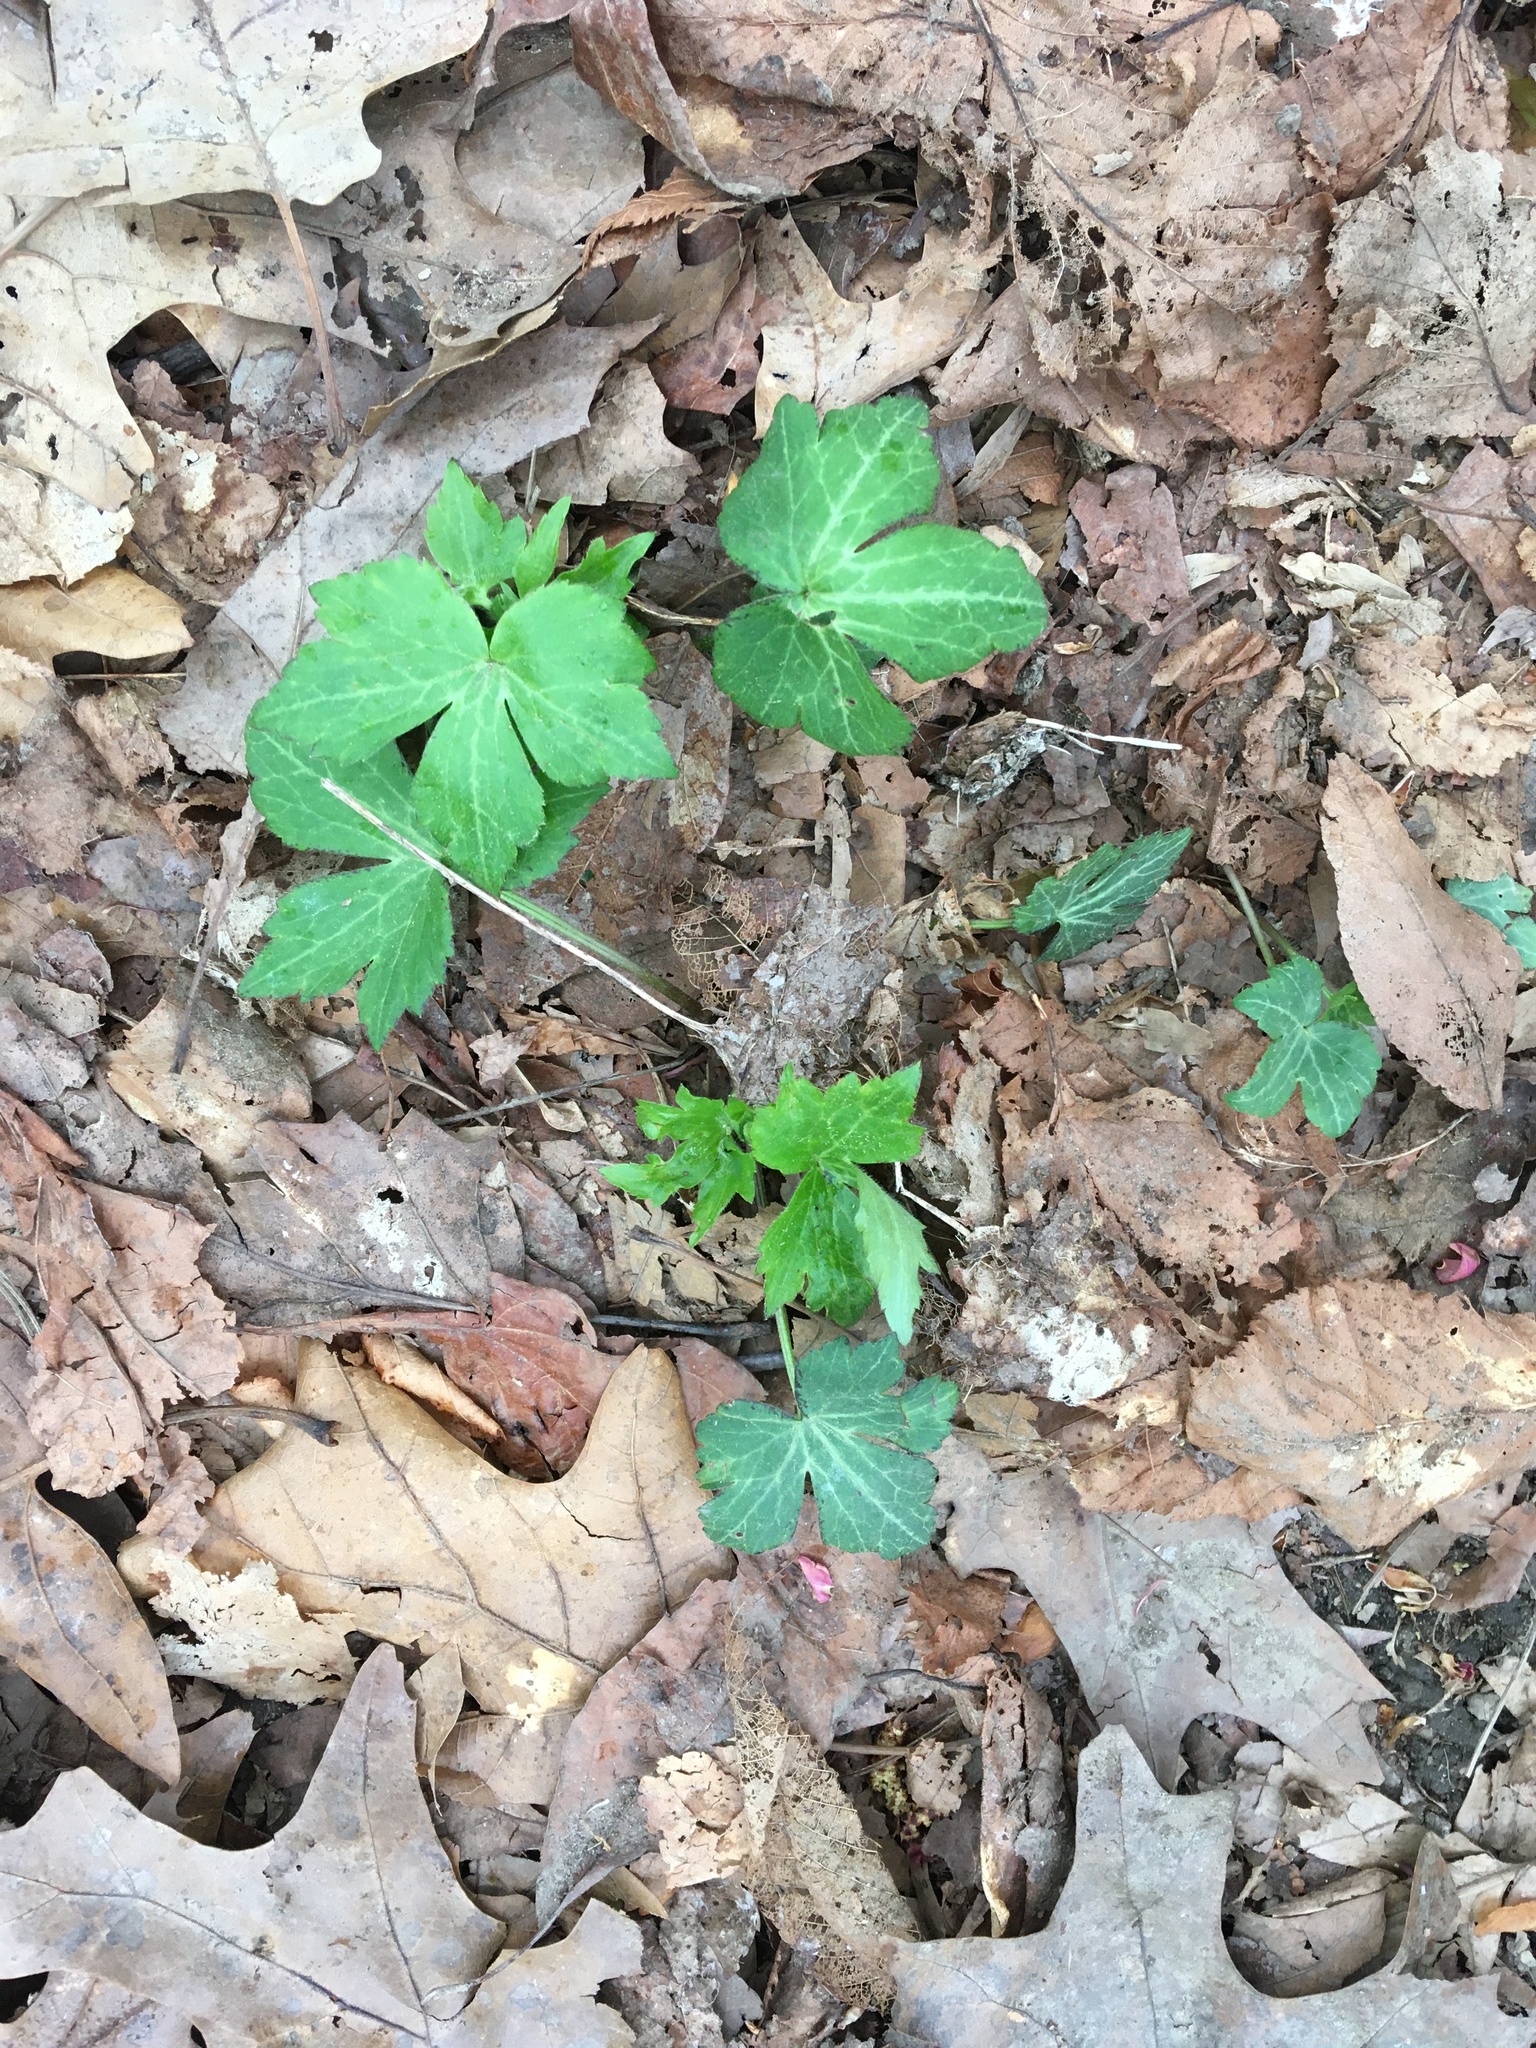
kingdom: Plantae
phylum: Tracheophyta
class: Magnoliopsida
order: Ranunculales
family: Ranunculaceae
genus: Hepatica
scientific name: Hepatica americana
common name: American hepatica
